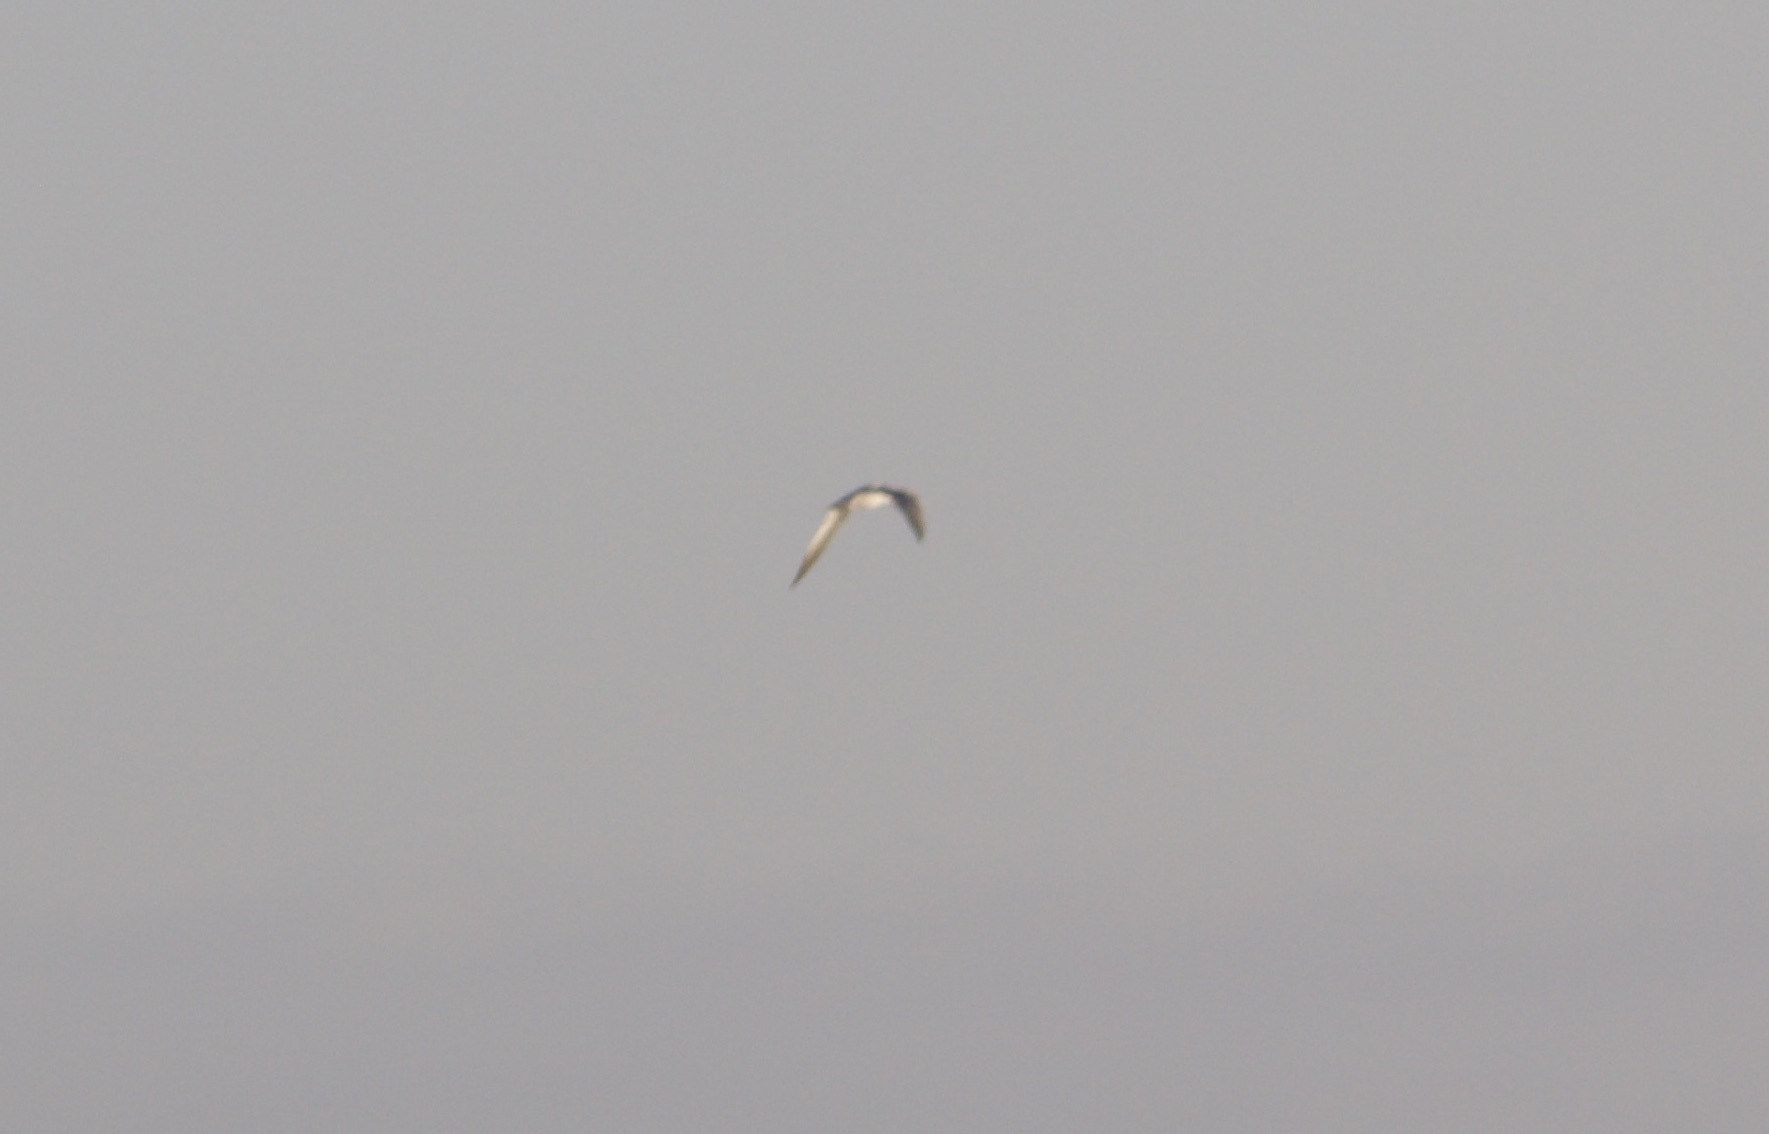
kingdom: Animalia
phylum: Chordata
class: Aves
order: Charadriiformes
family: Laridae
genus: Hydroprogne
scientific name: Hydroprogne caspia
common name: Caspian tern
